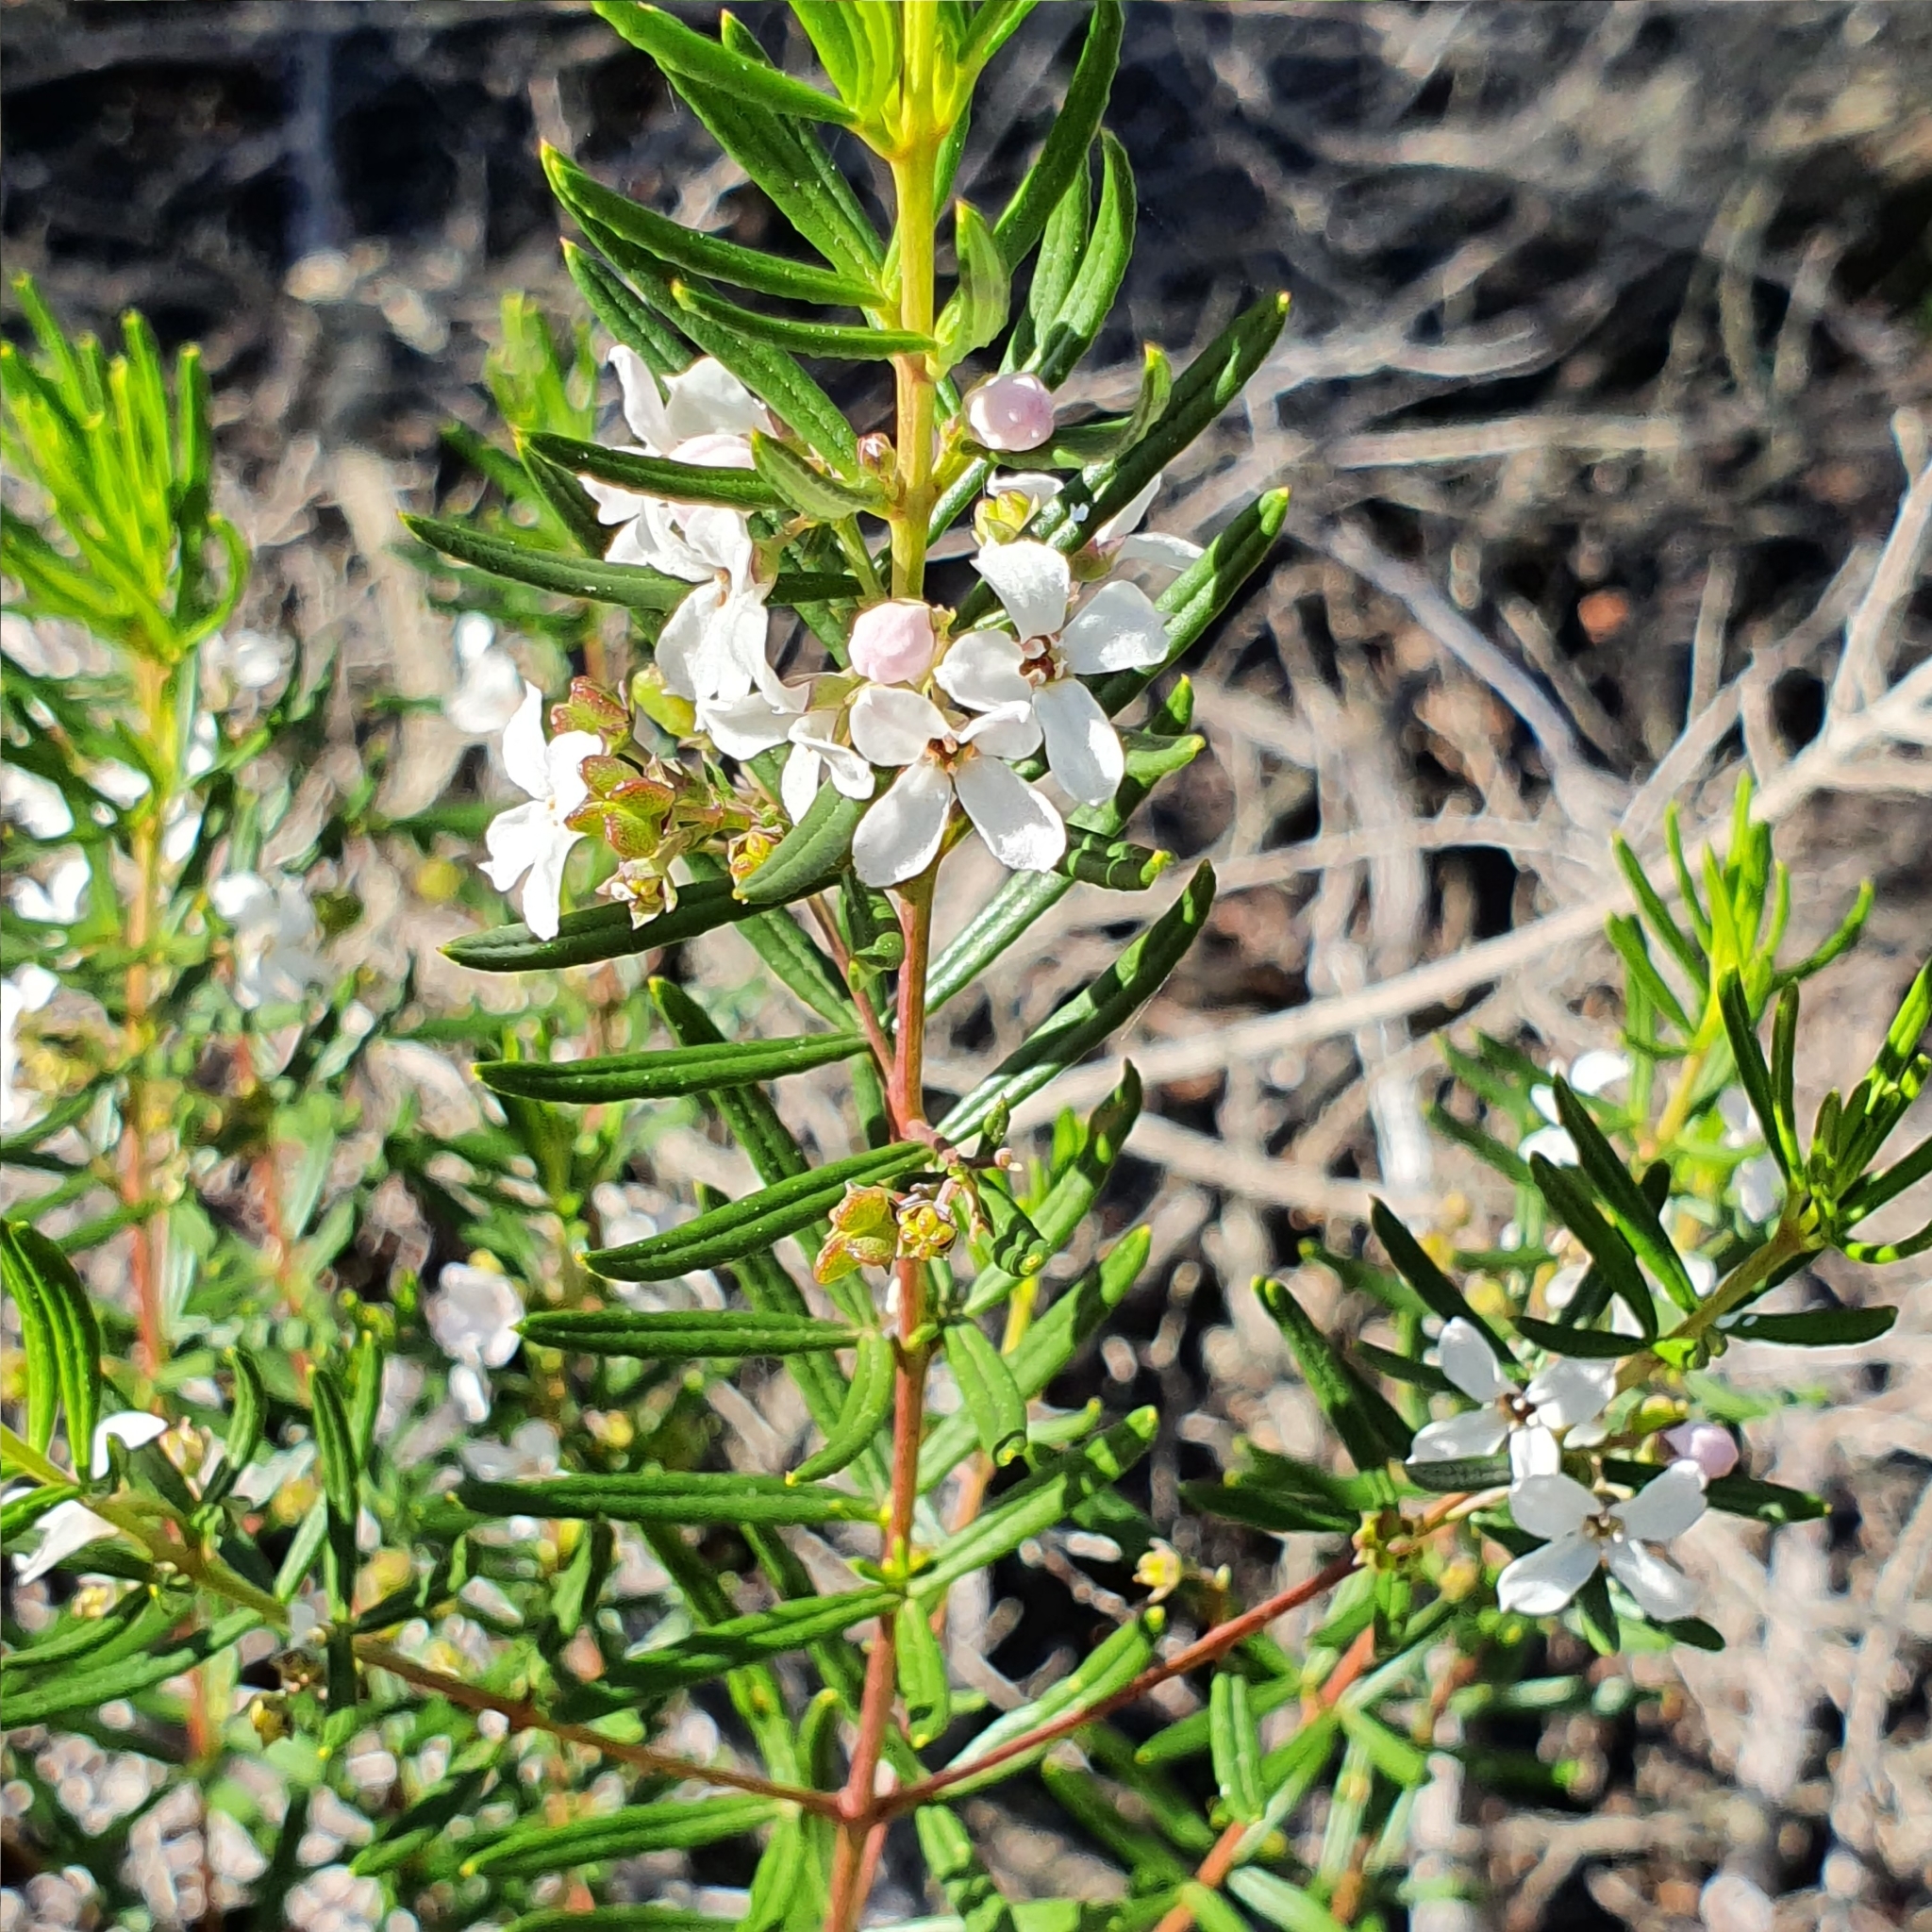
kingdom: Plantae
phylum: Tracheophyta
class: Magnoliopsida
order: Sapindales
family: Rutaceae
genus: Zieria
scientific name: Zieria laevigata
